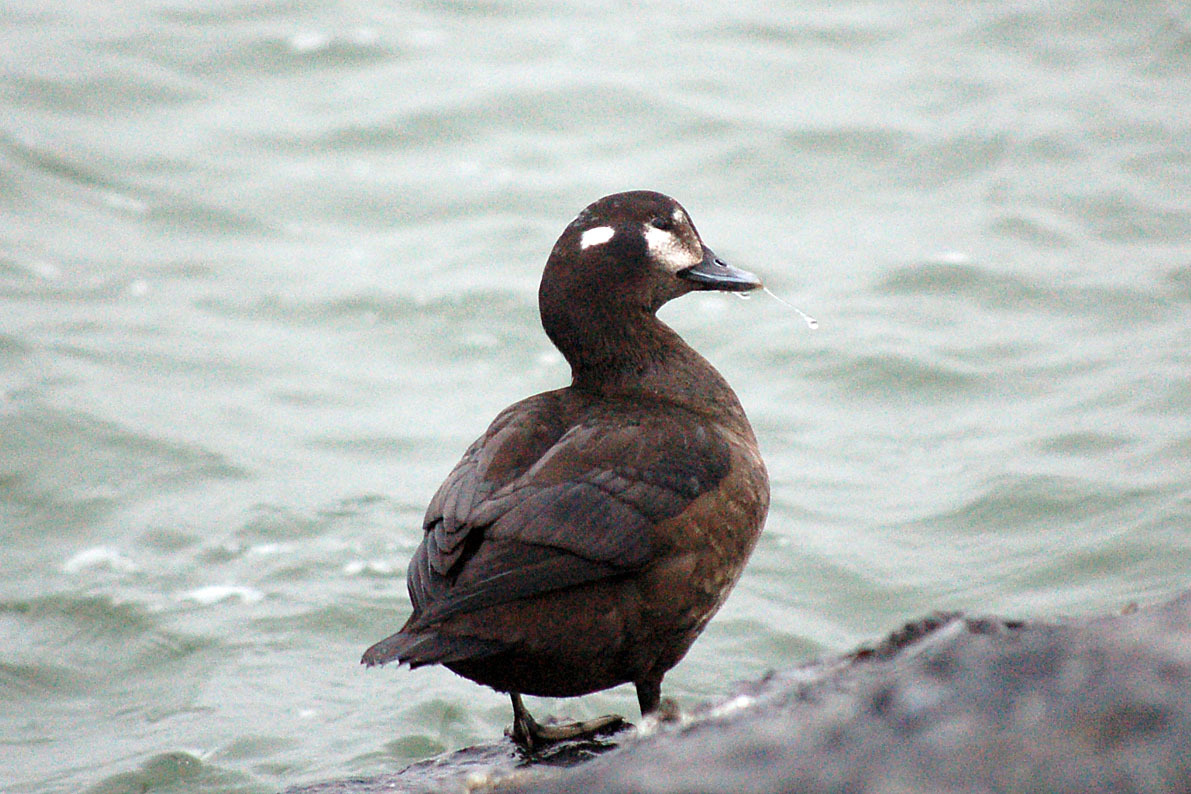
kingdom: Animalia
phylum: Chordata
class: Aves
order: Anseriformes
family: Anatidae
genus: Histrionicus
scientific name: Histrionicus histrionicus
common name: Harlequin duck
